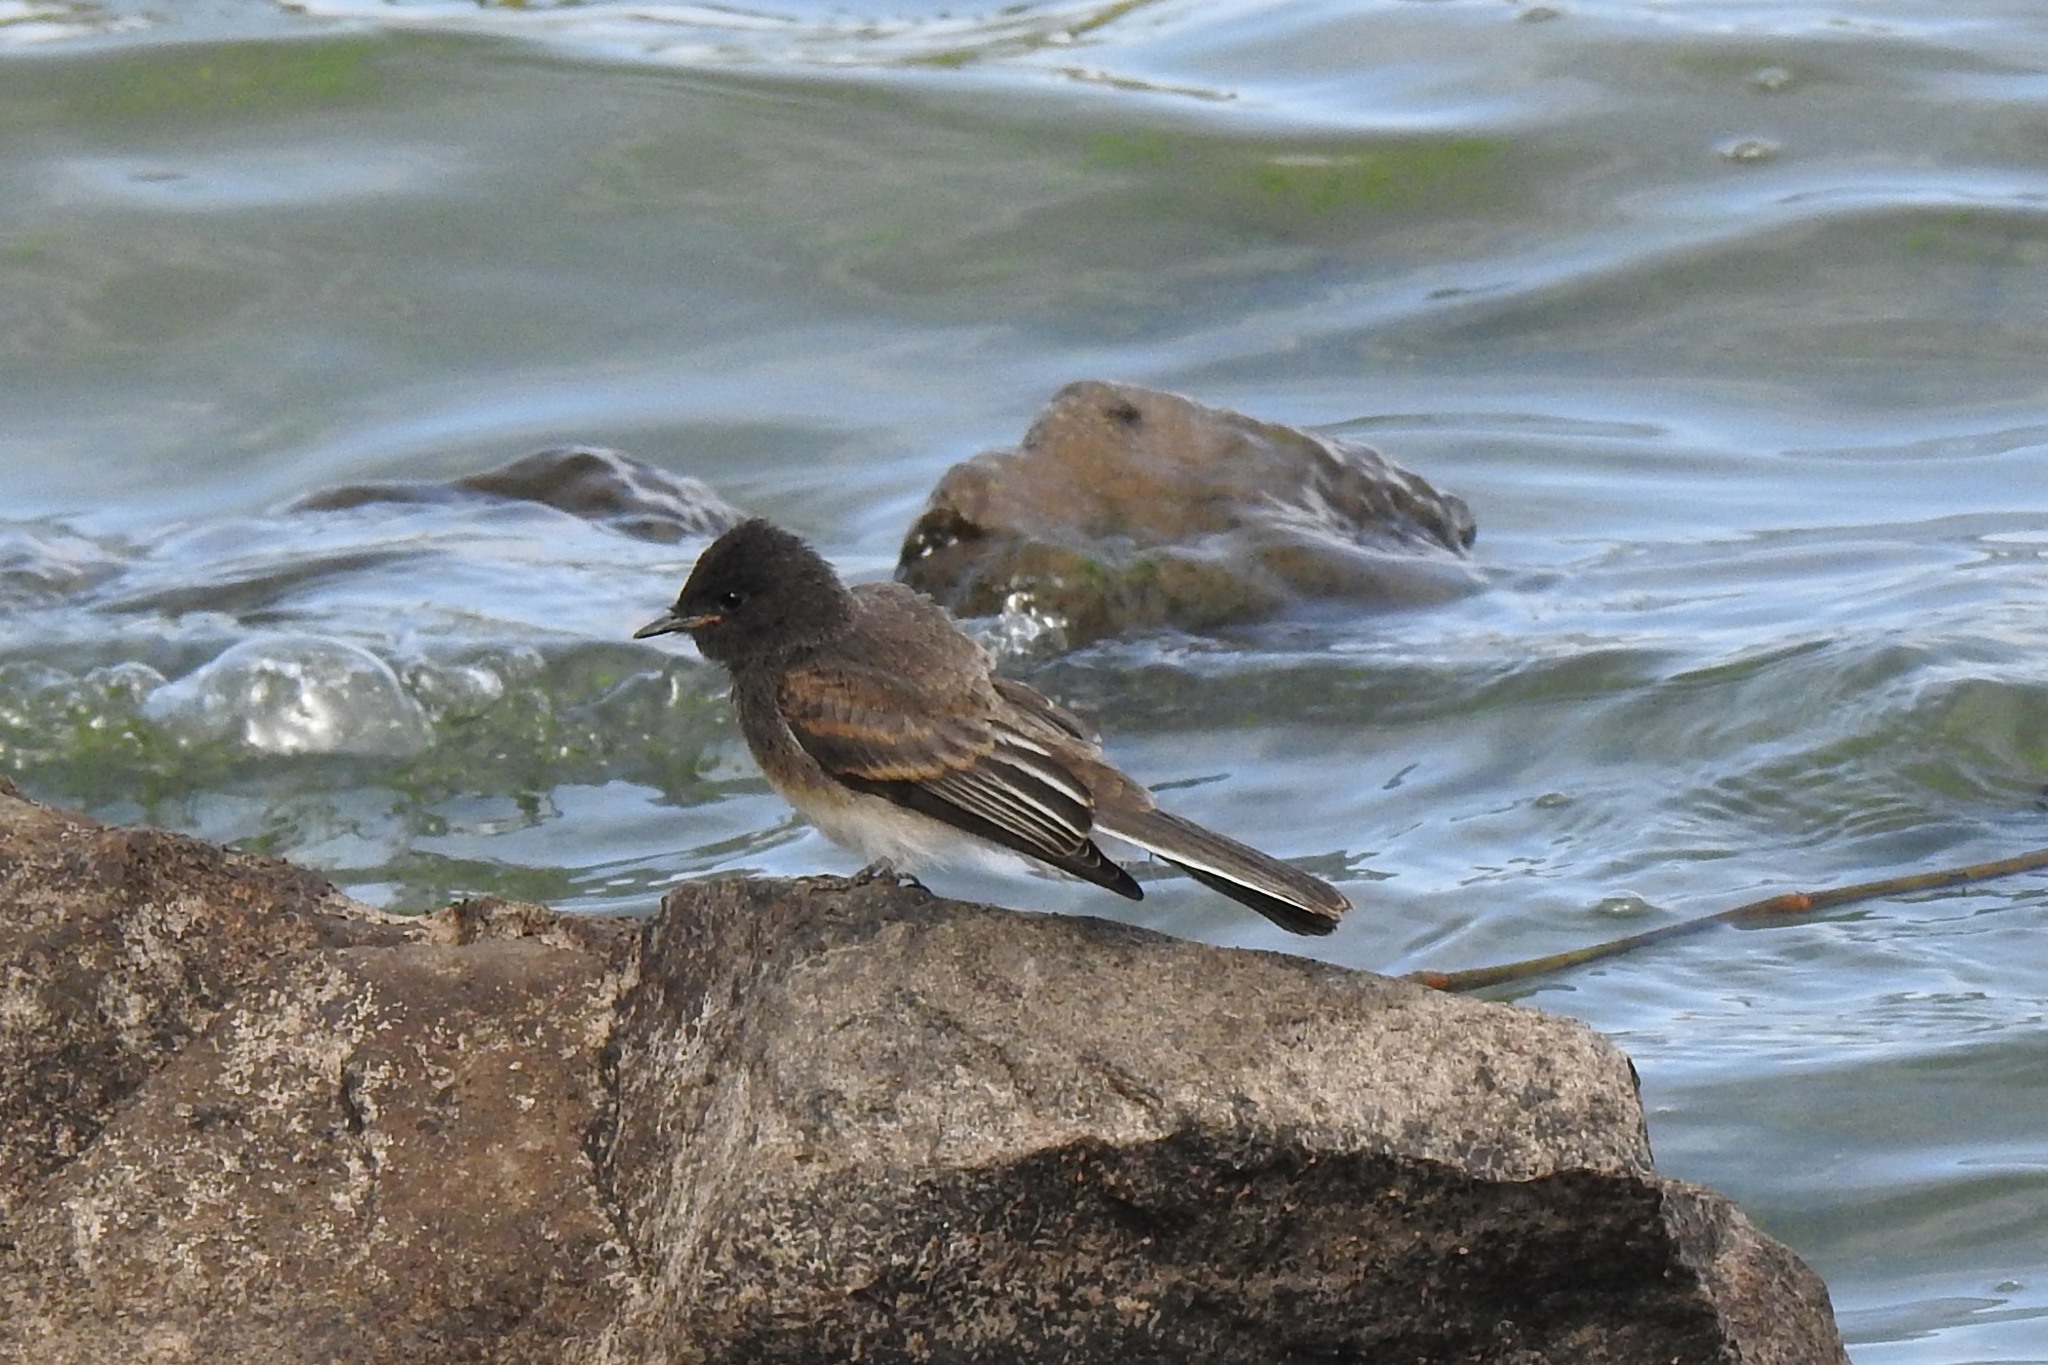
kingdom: Animalia
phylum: Chordata
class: Aves
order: Passeriformes
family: Tyrannidae
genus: Sayornis
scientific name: Sayornis nigricans
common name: Black phoebe
